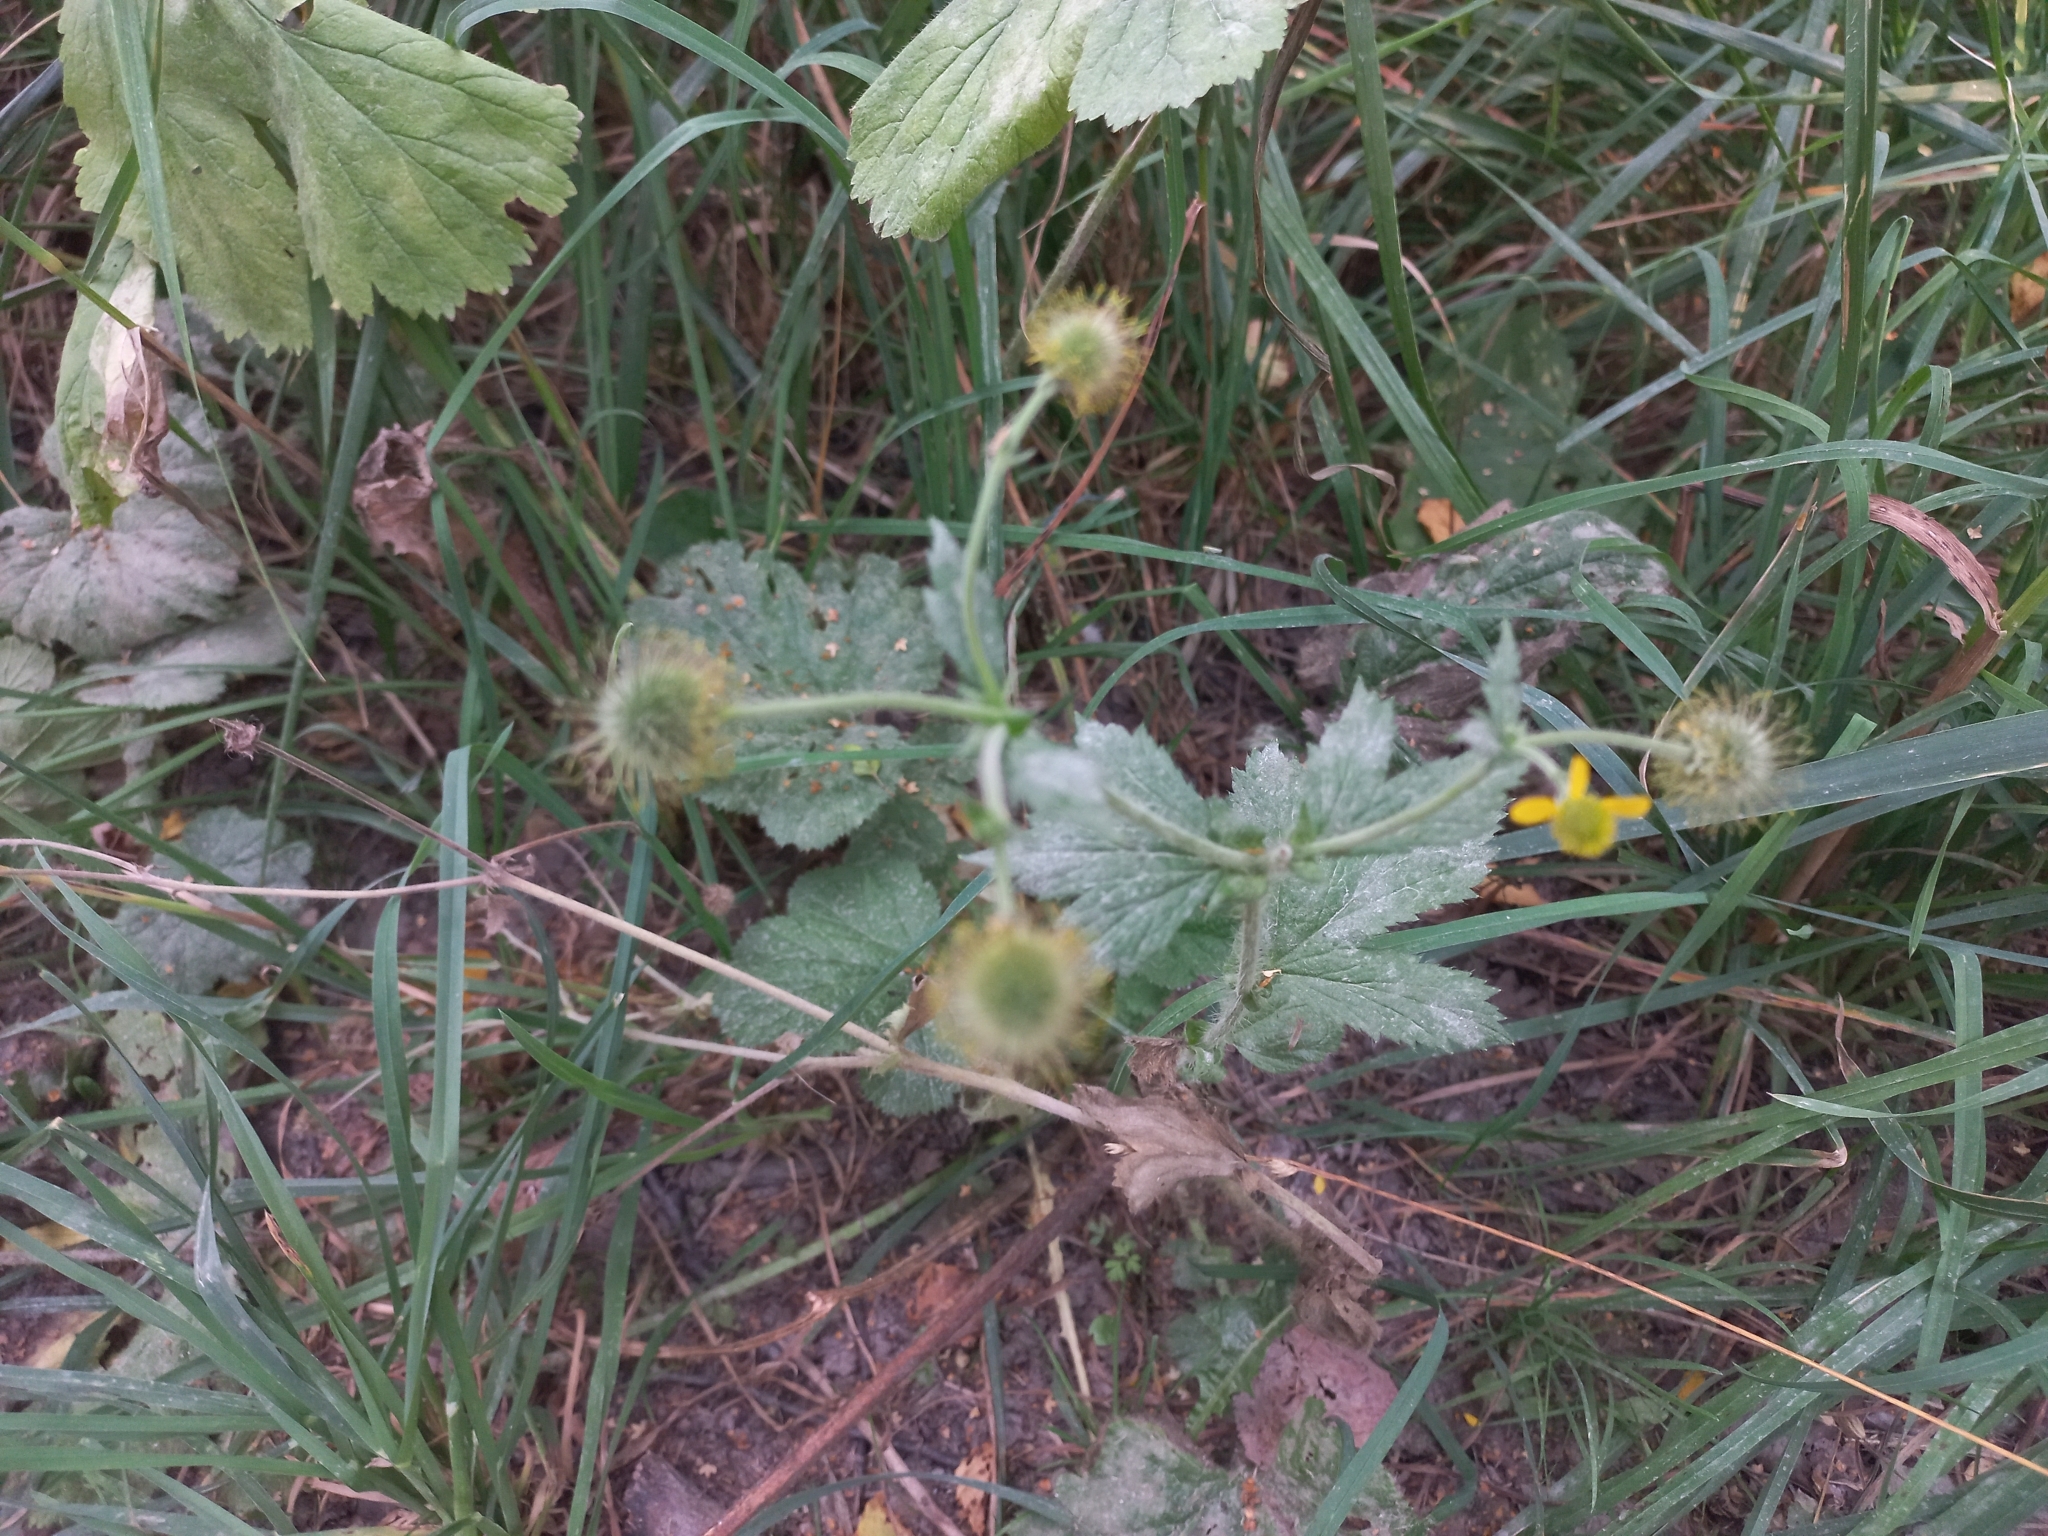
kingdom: Plantae
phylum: Tracheophyta
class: Magnoliopsida
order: Rosales
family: Rosaceae
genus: Geum
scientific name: Geum urbanum
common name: Wood avens
